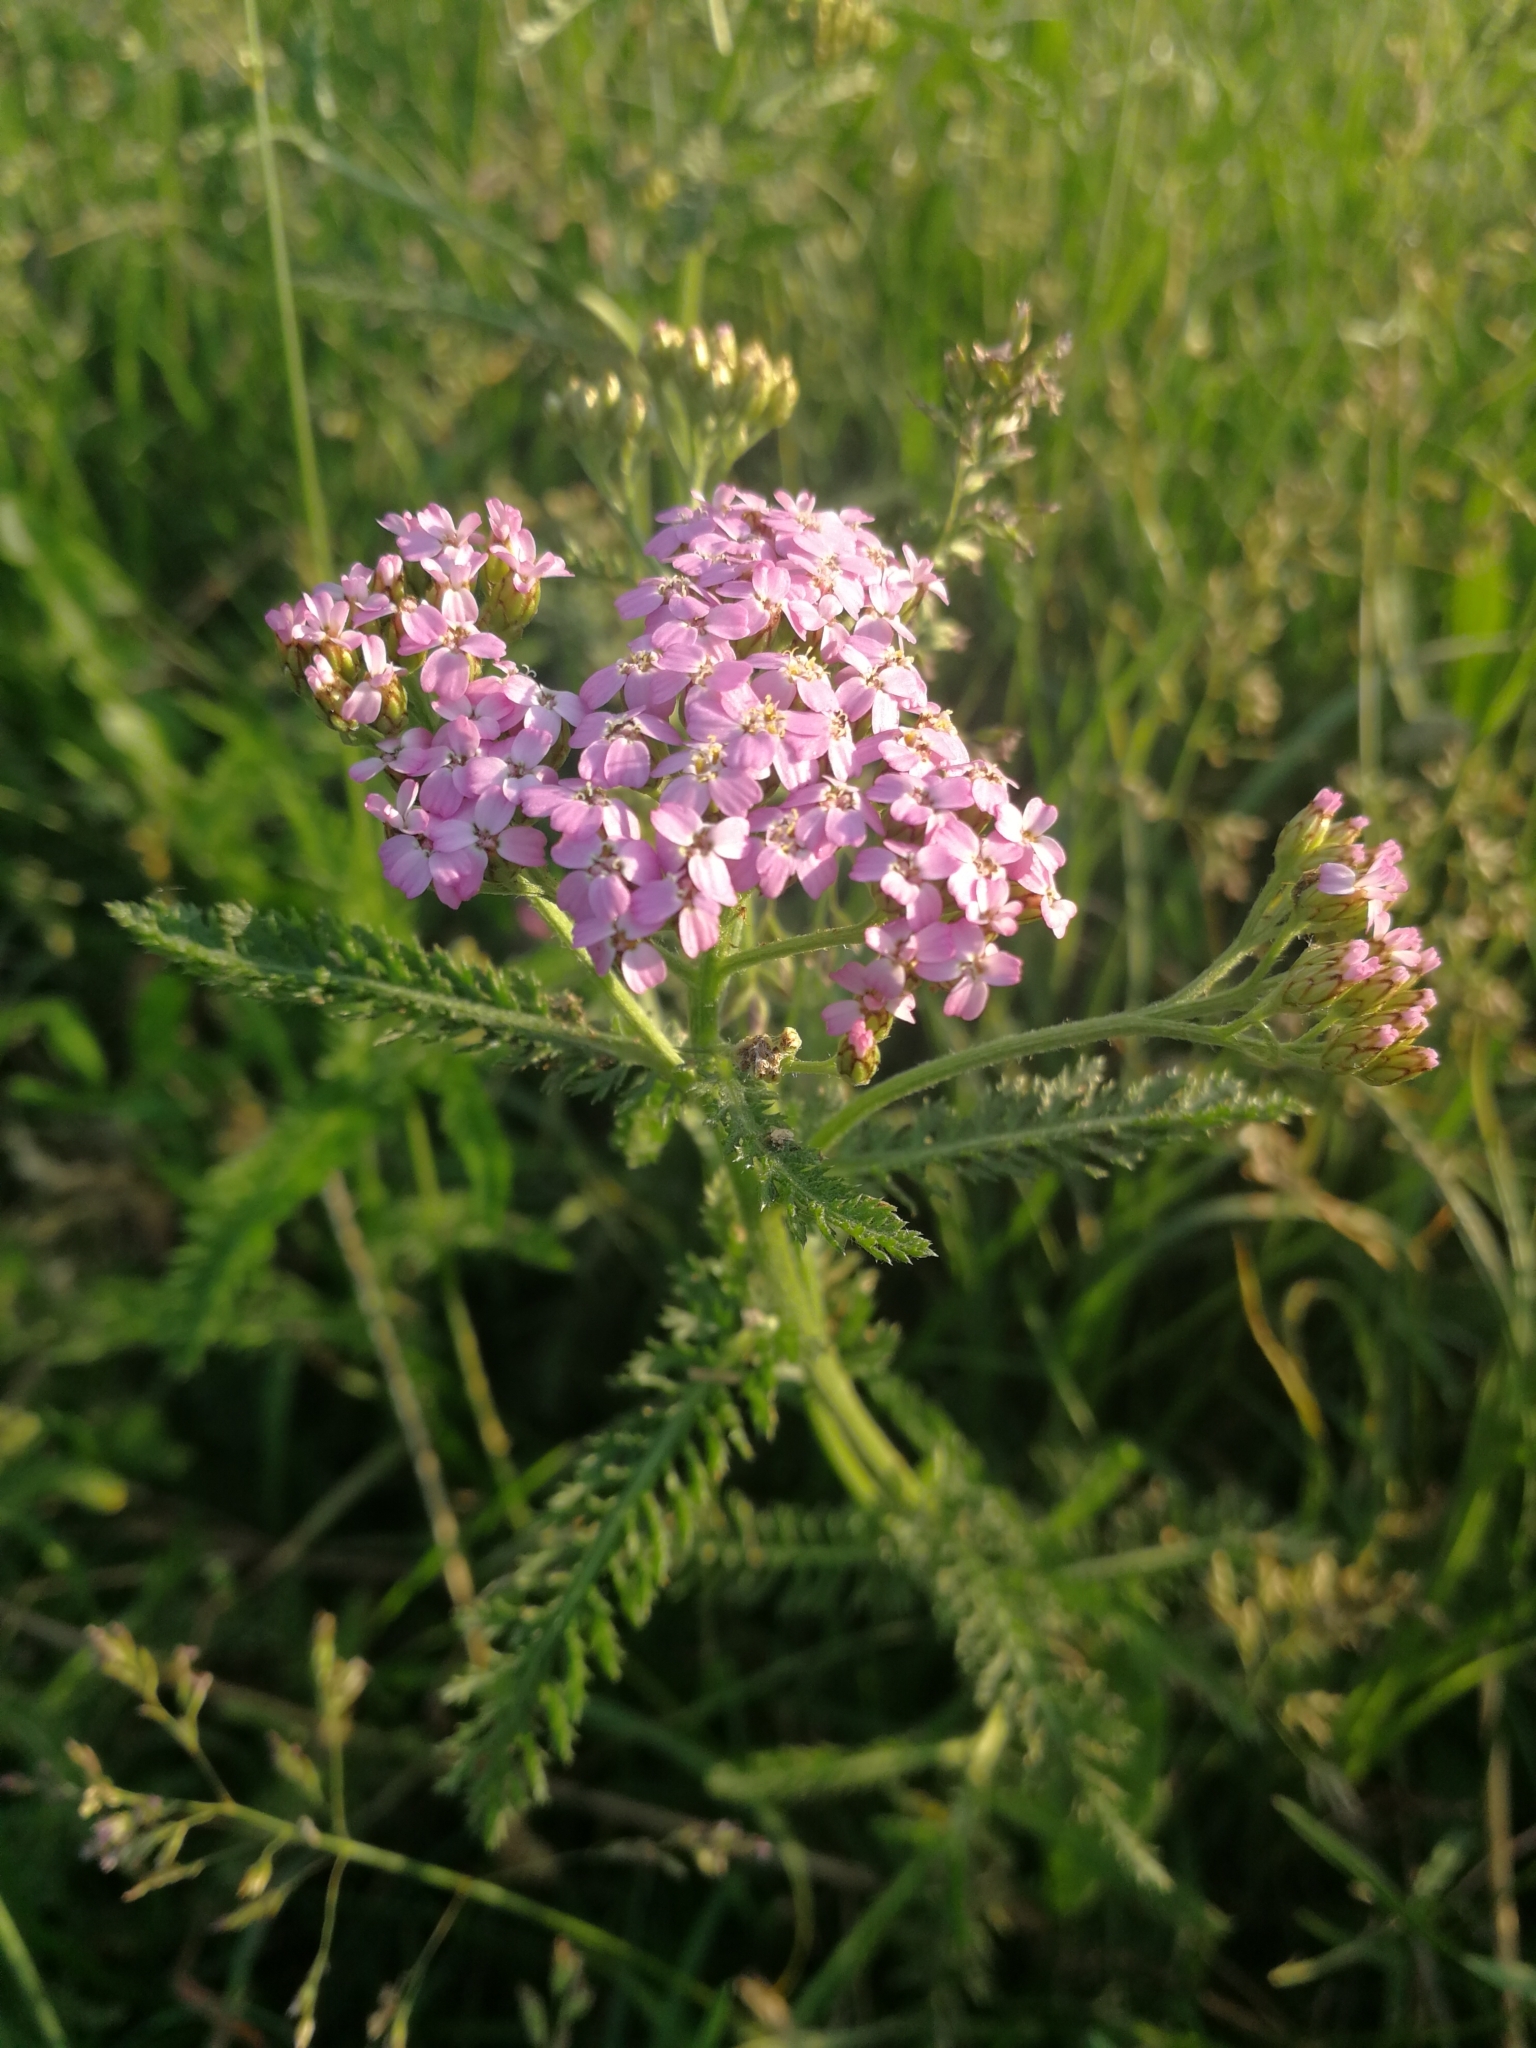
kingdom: Plantae
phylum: Tracheophyta
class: Magnoliopsida
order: Asterales
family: Asteraceae
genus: Achillea
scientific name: Achillea millefolium
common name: Yarrow
